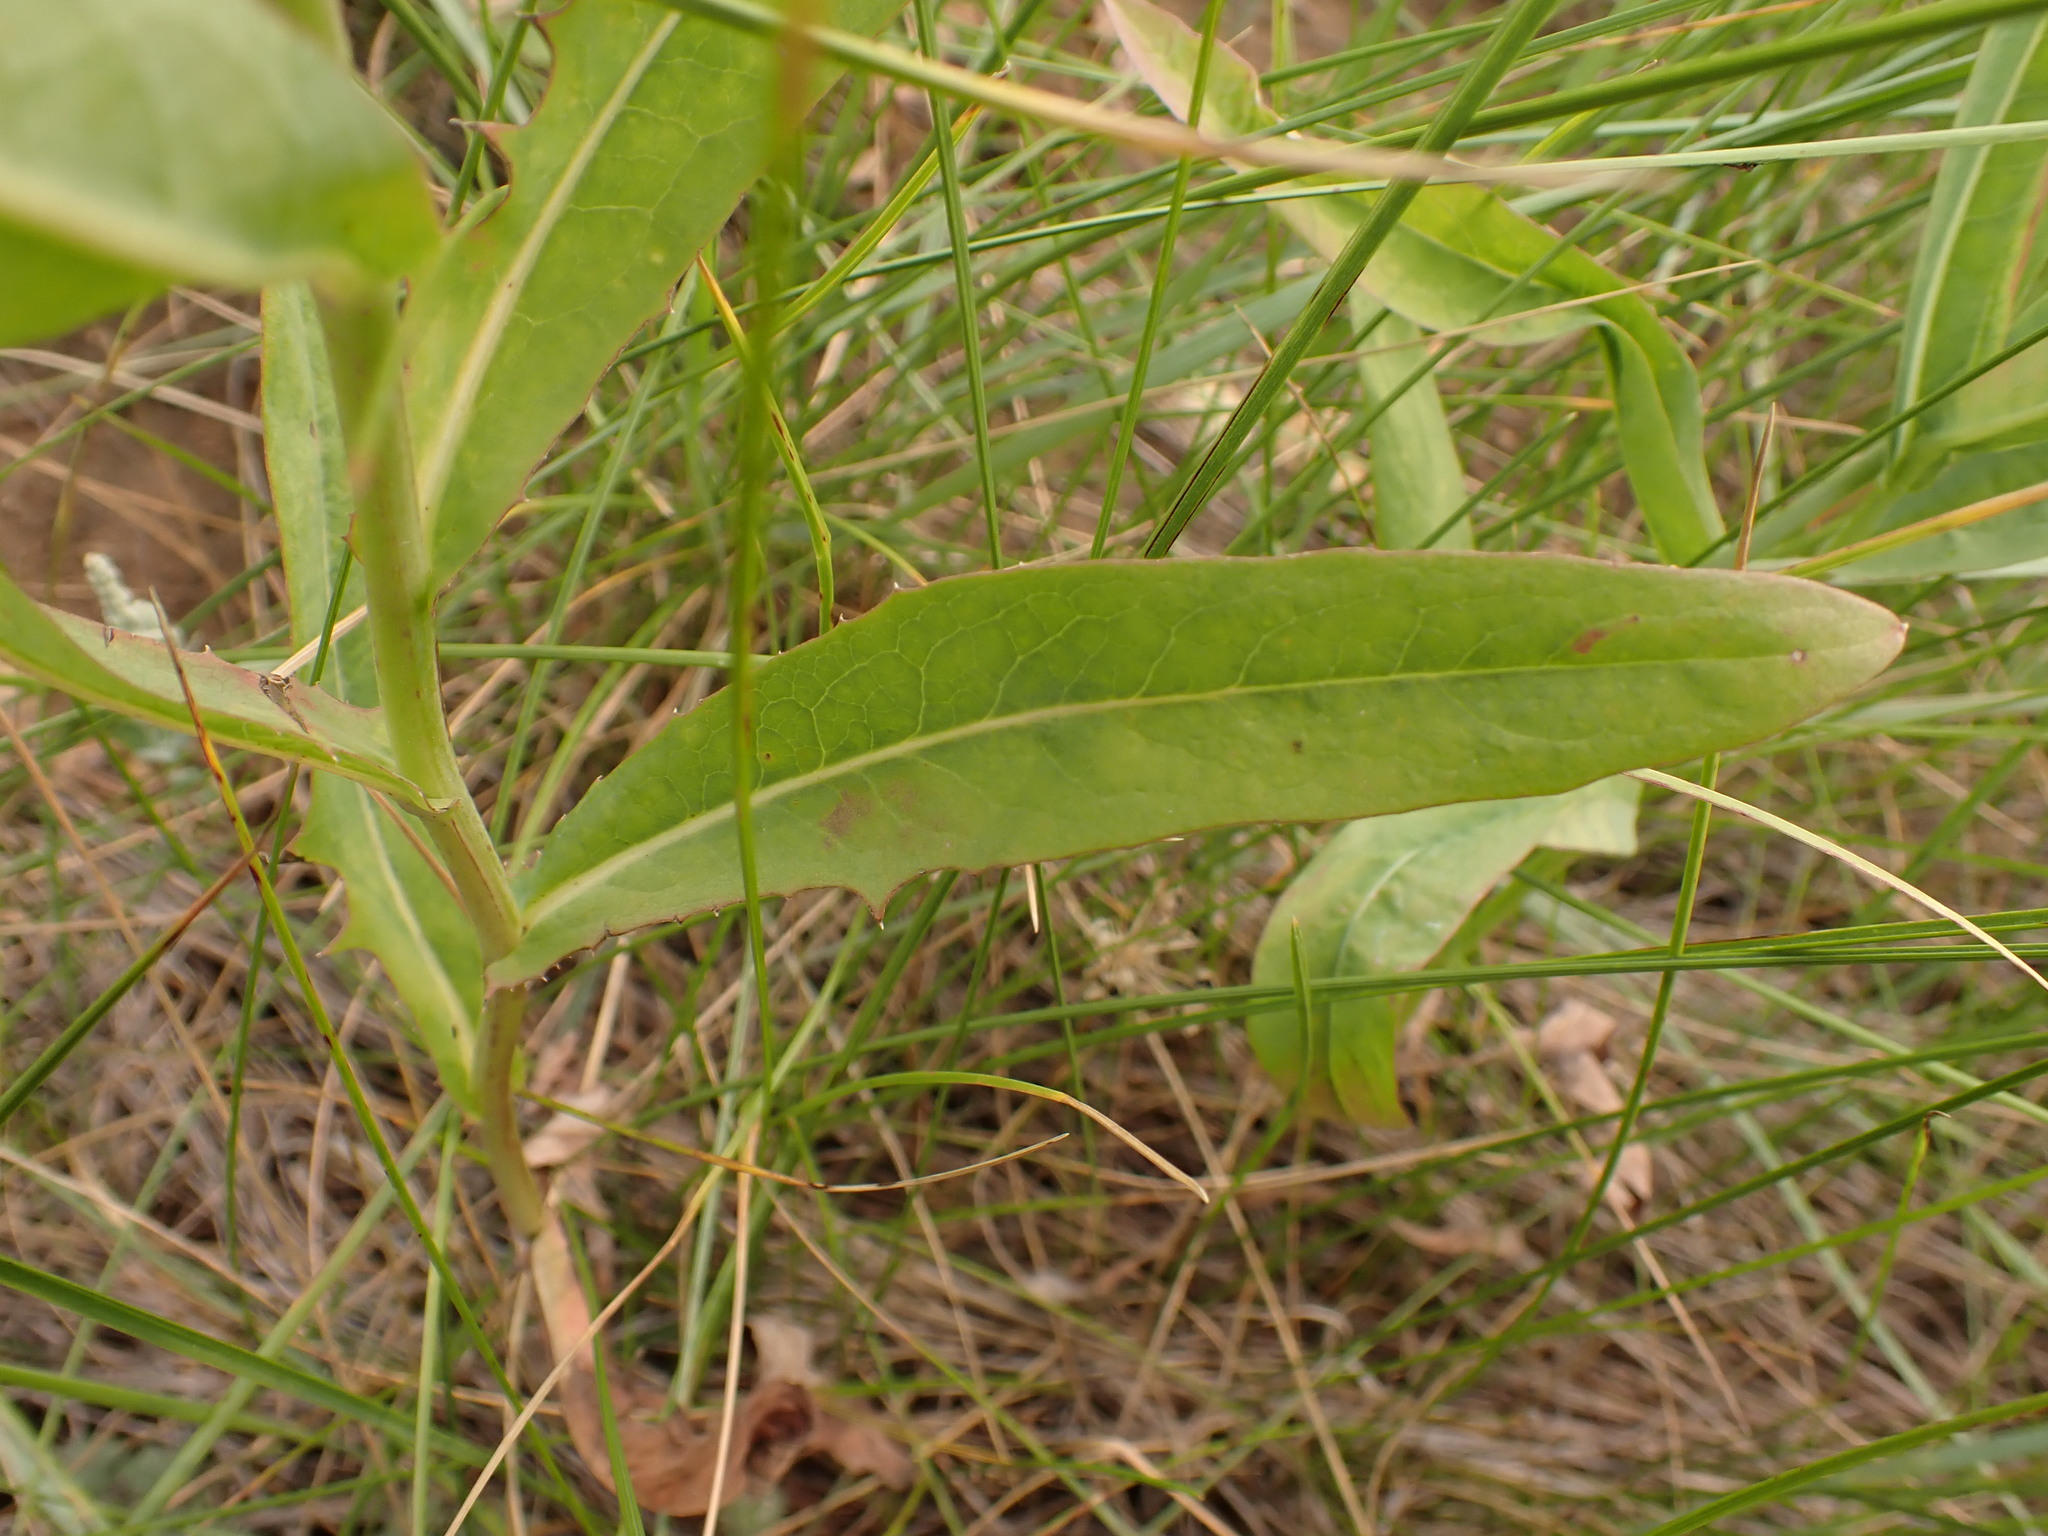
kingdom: Plantae
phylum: Tracheophyta
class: Magnoliopsida
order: Asterales
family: Asteraceae
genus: Lactuca
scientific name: Lactuca pulchella
